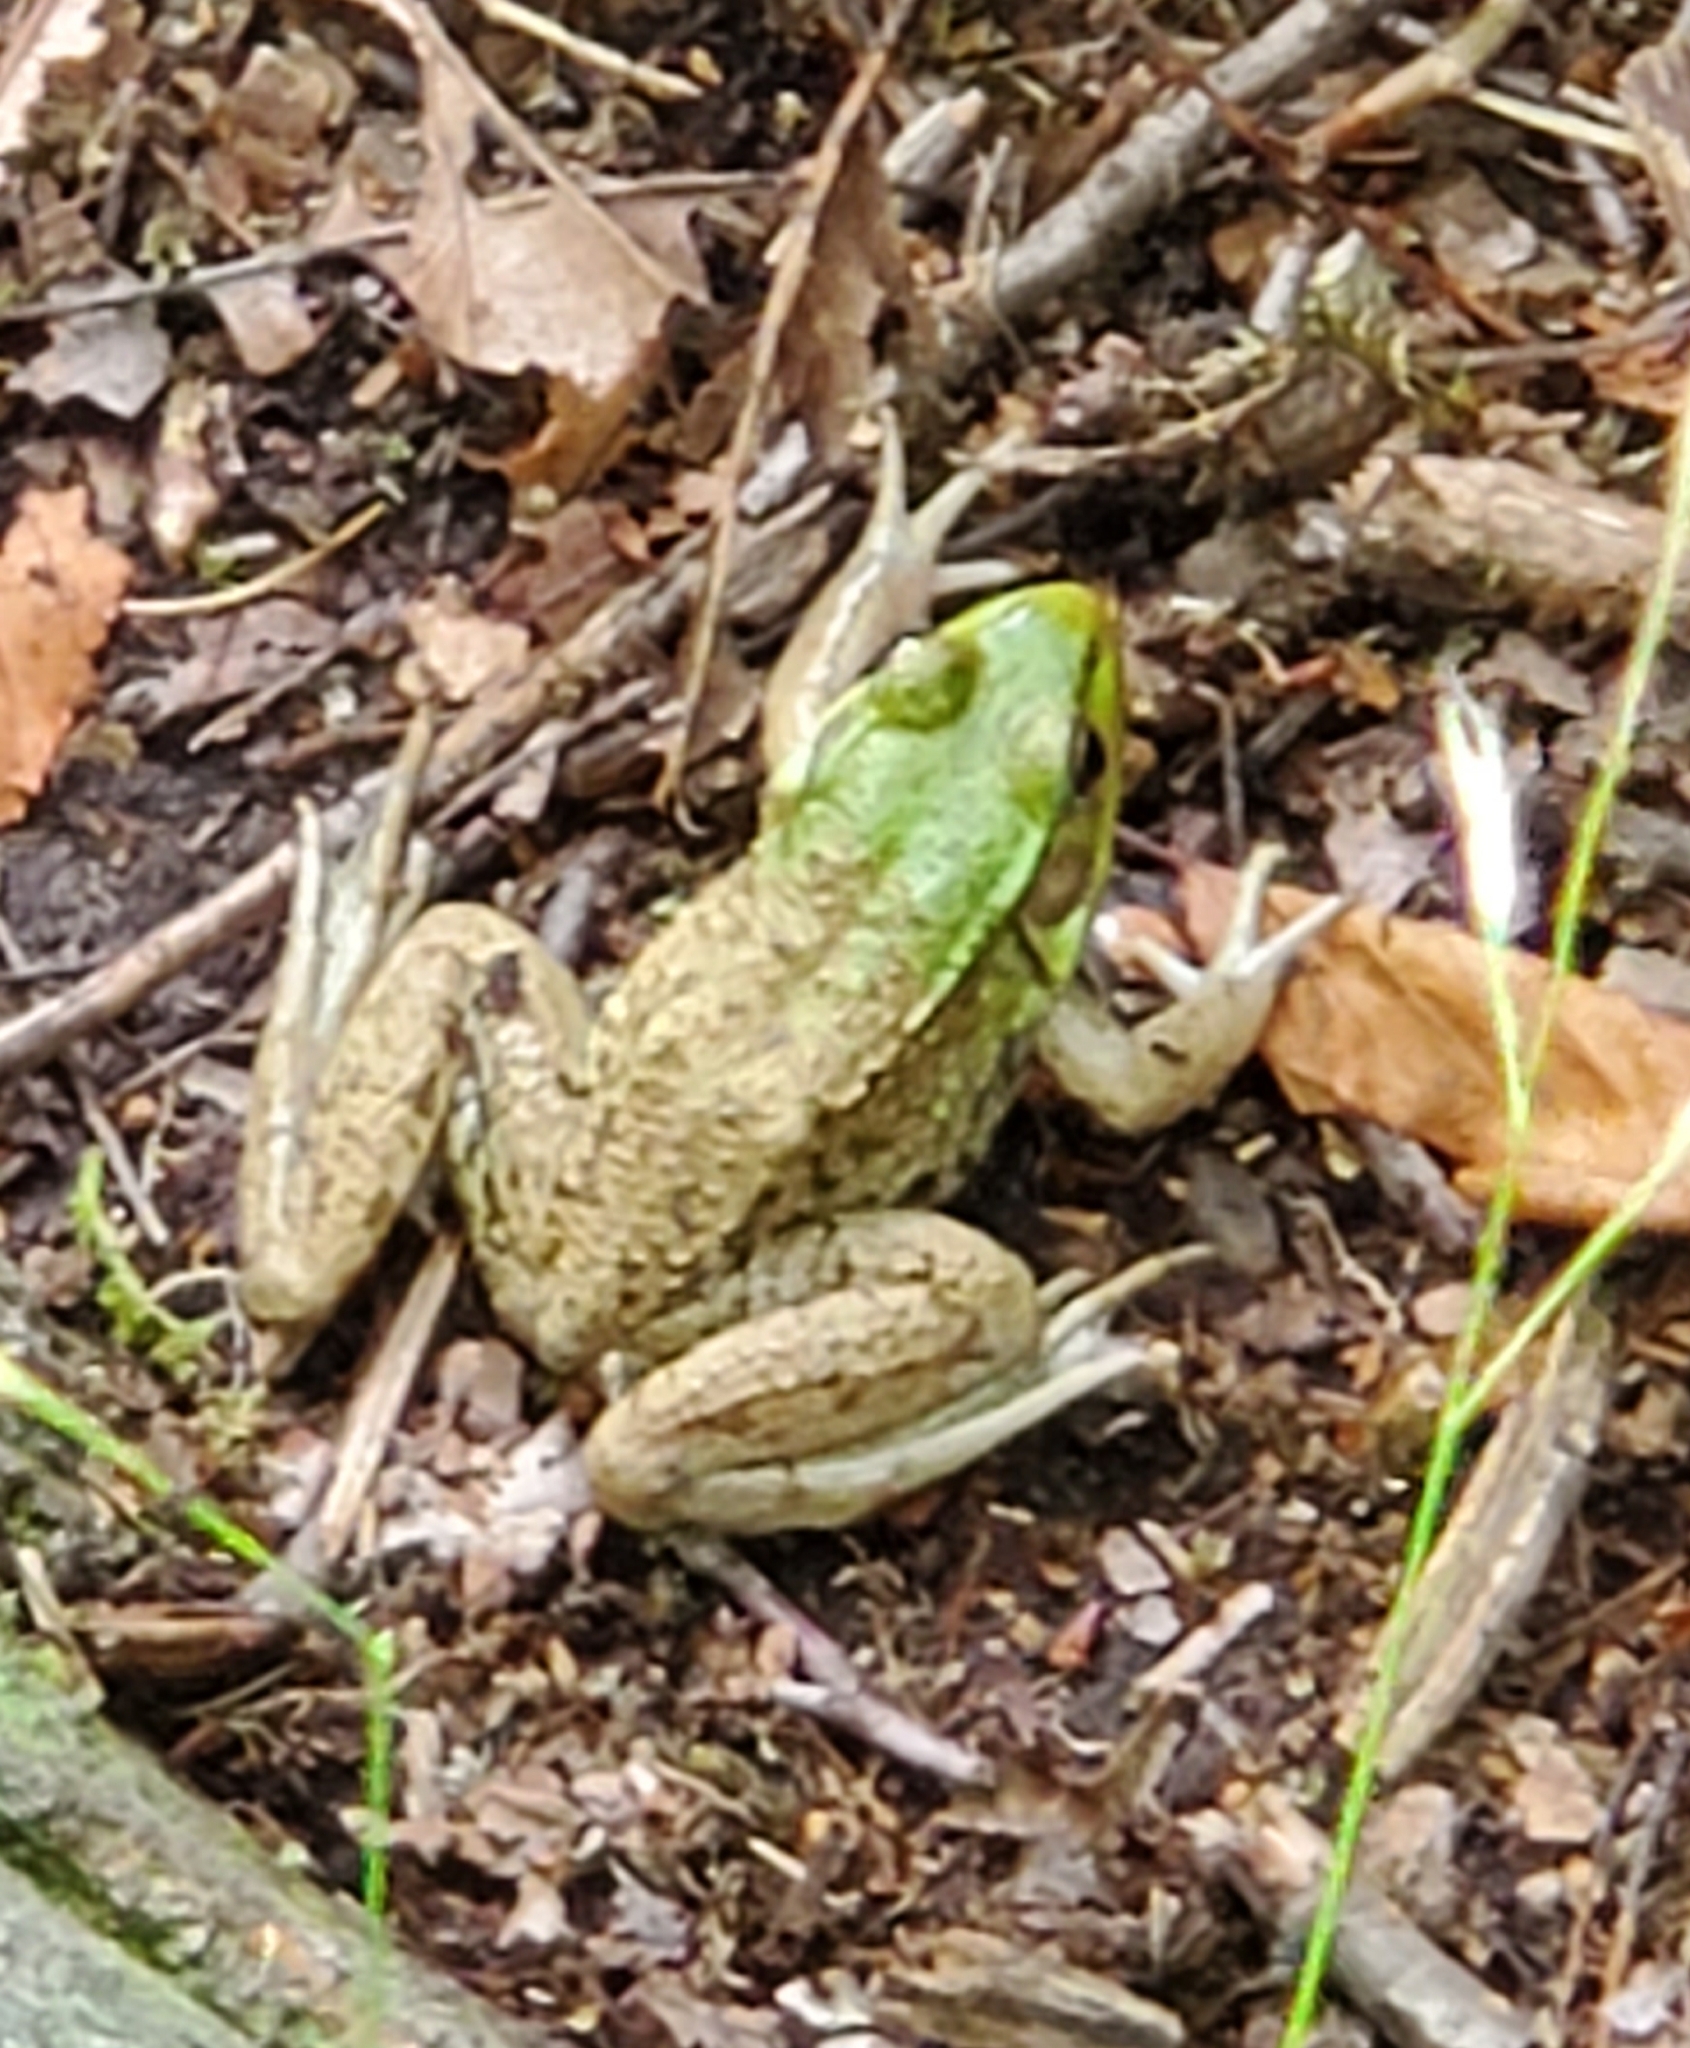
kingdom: Animalia
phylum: Chordata
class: Amphibia
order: Anura
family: Ranidae
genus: Lithobates
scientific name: Lithobates clamitans
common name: Green frog
